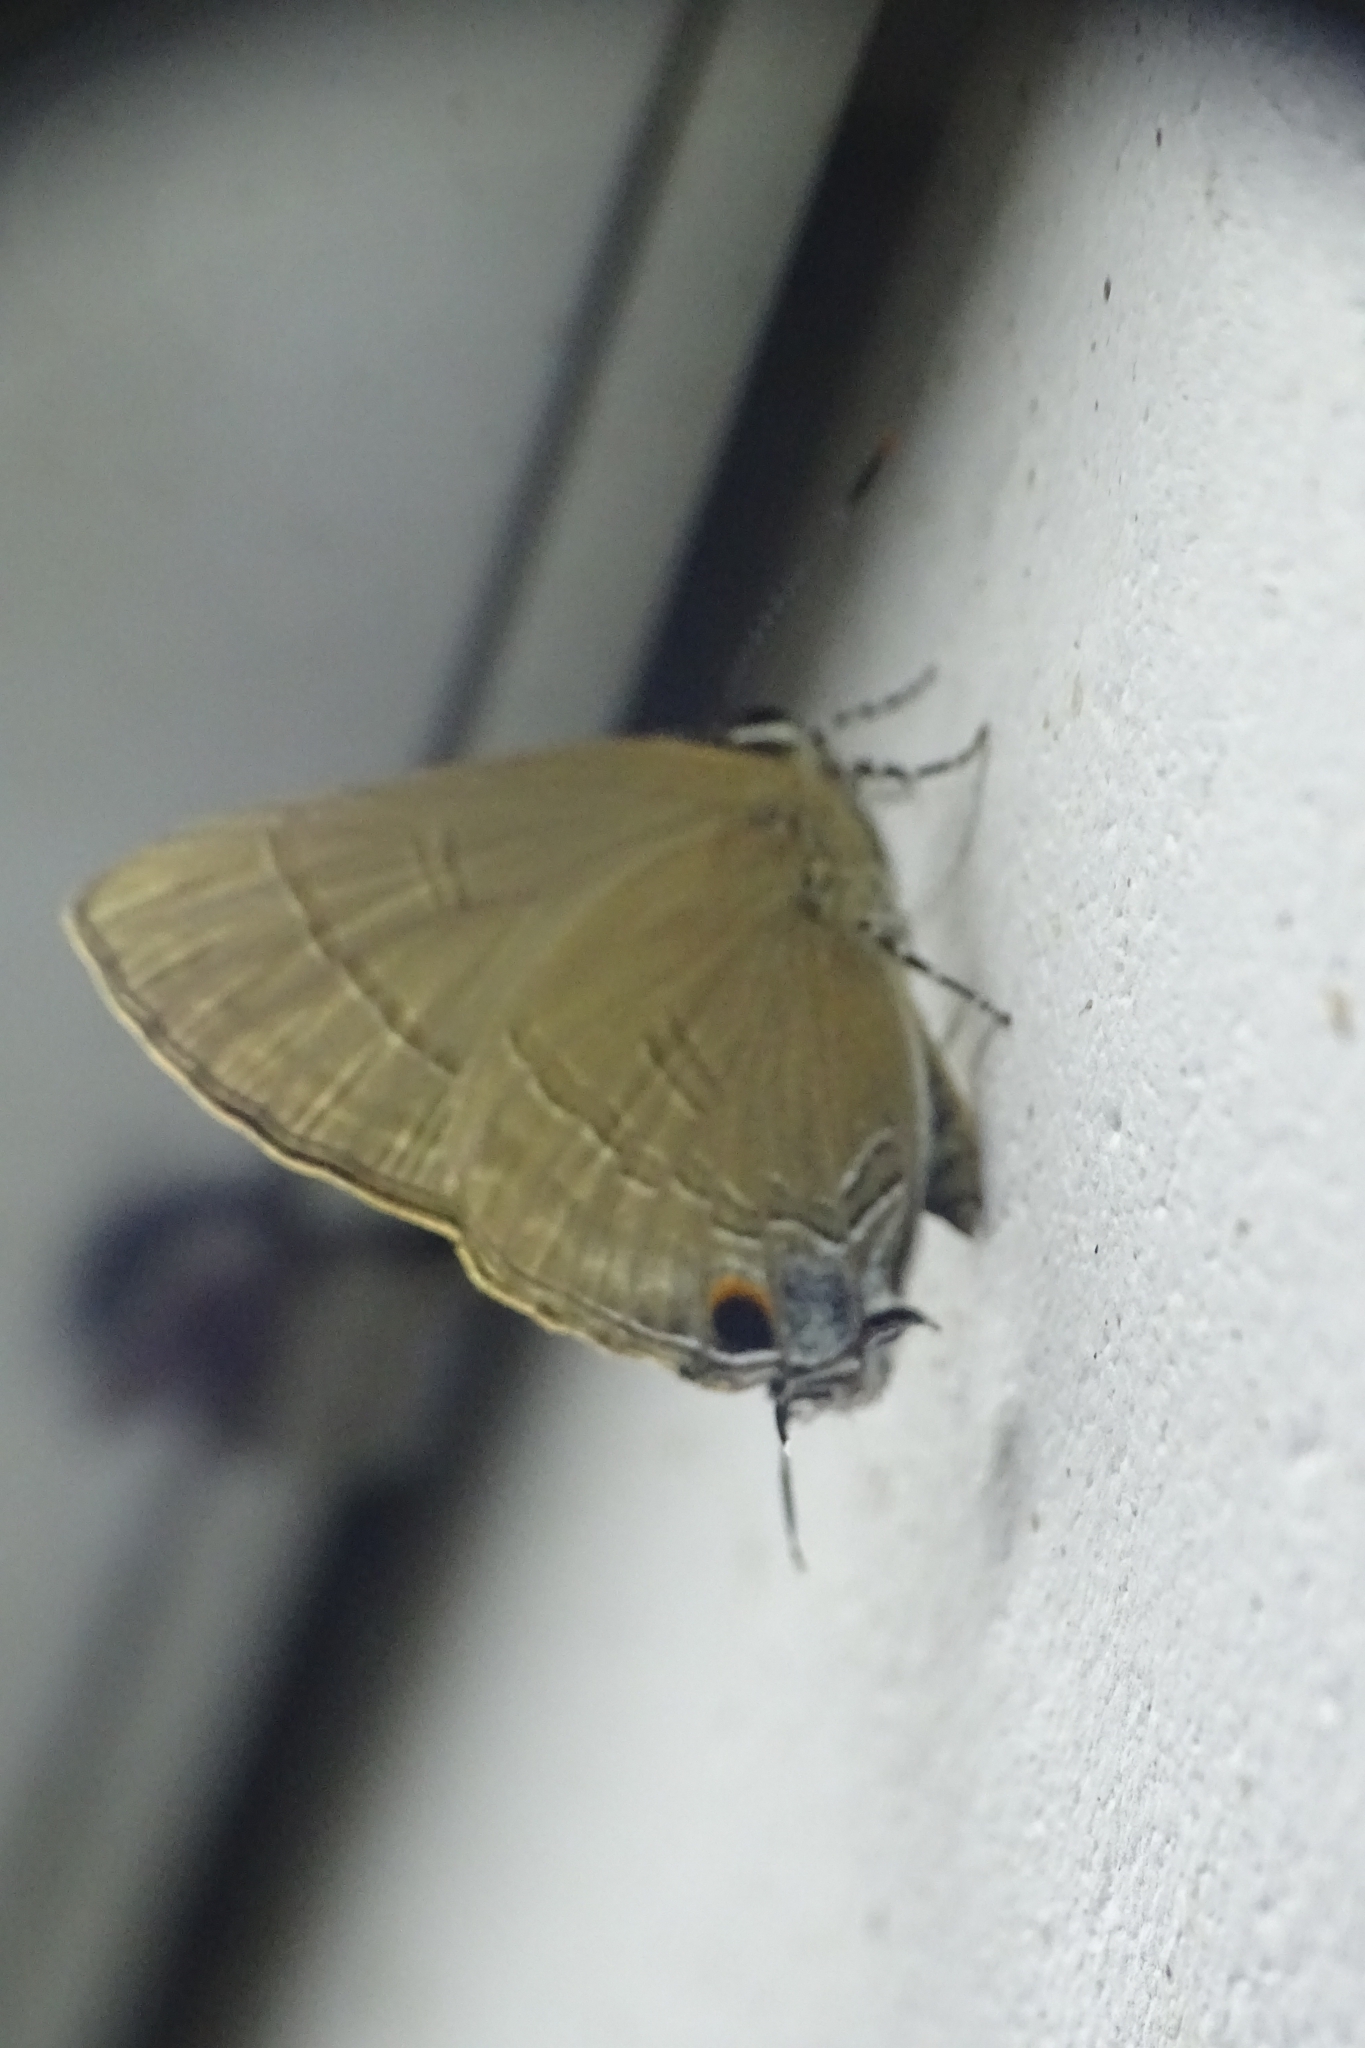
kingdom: Animalia
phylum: Arthropoda
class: Insecta
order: Lepidoptera
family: Lycaenidae
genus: Rapala
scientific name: Rapala manea
